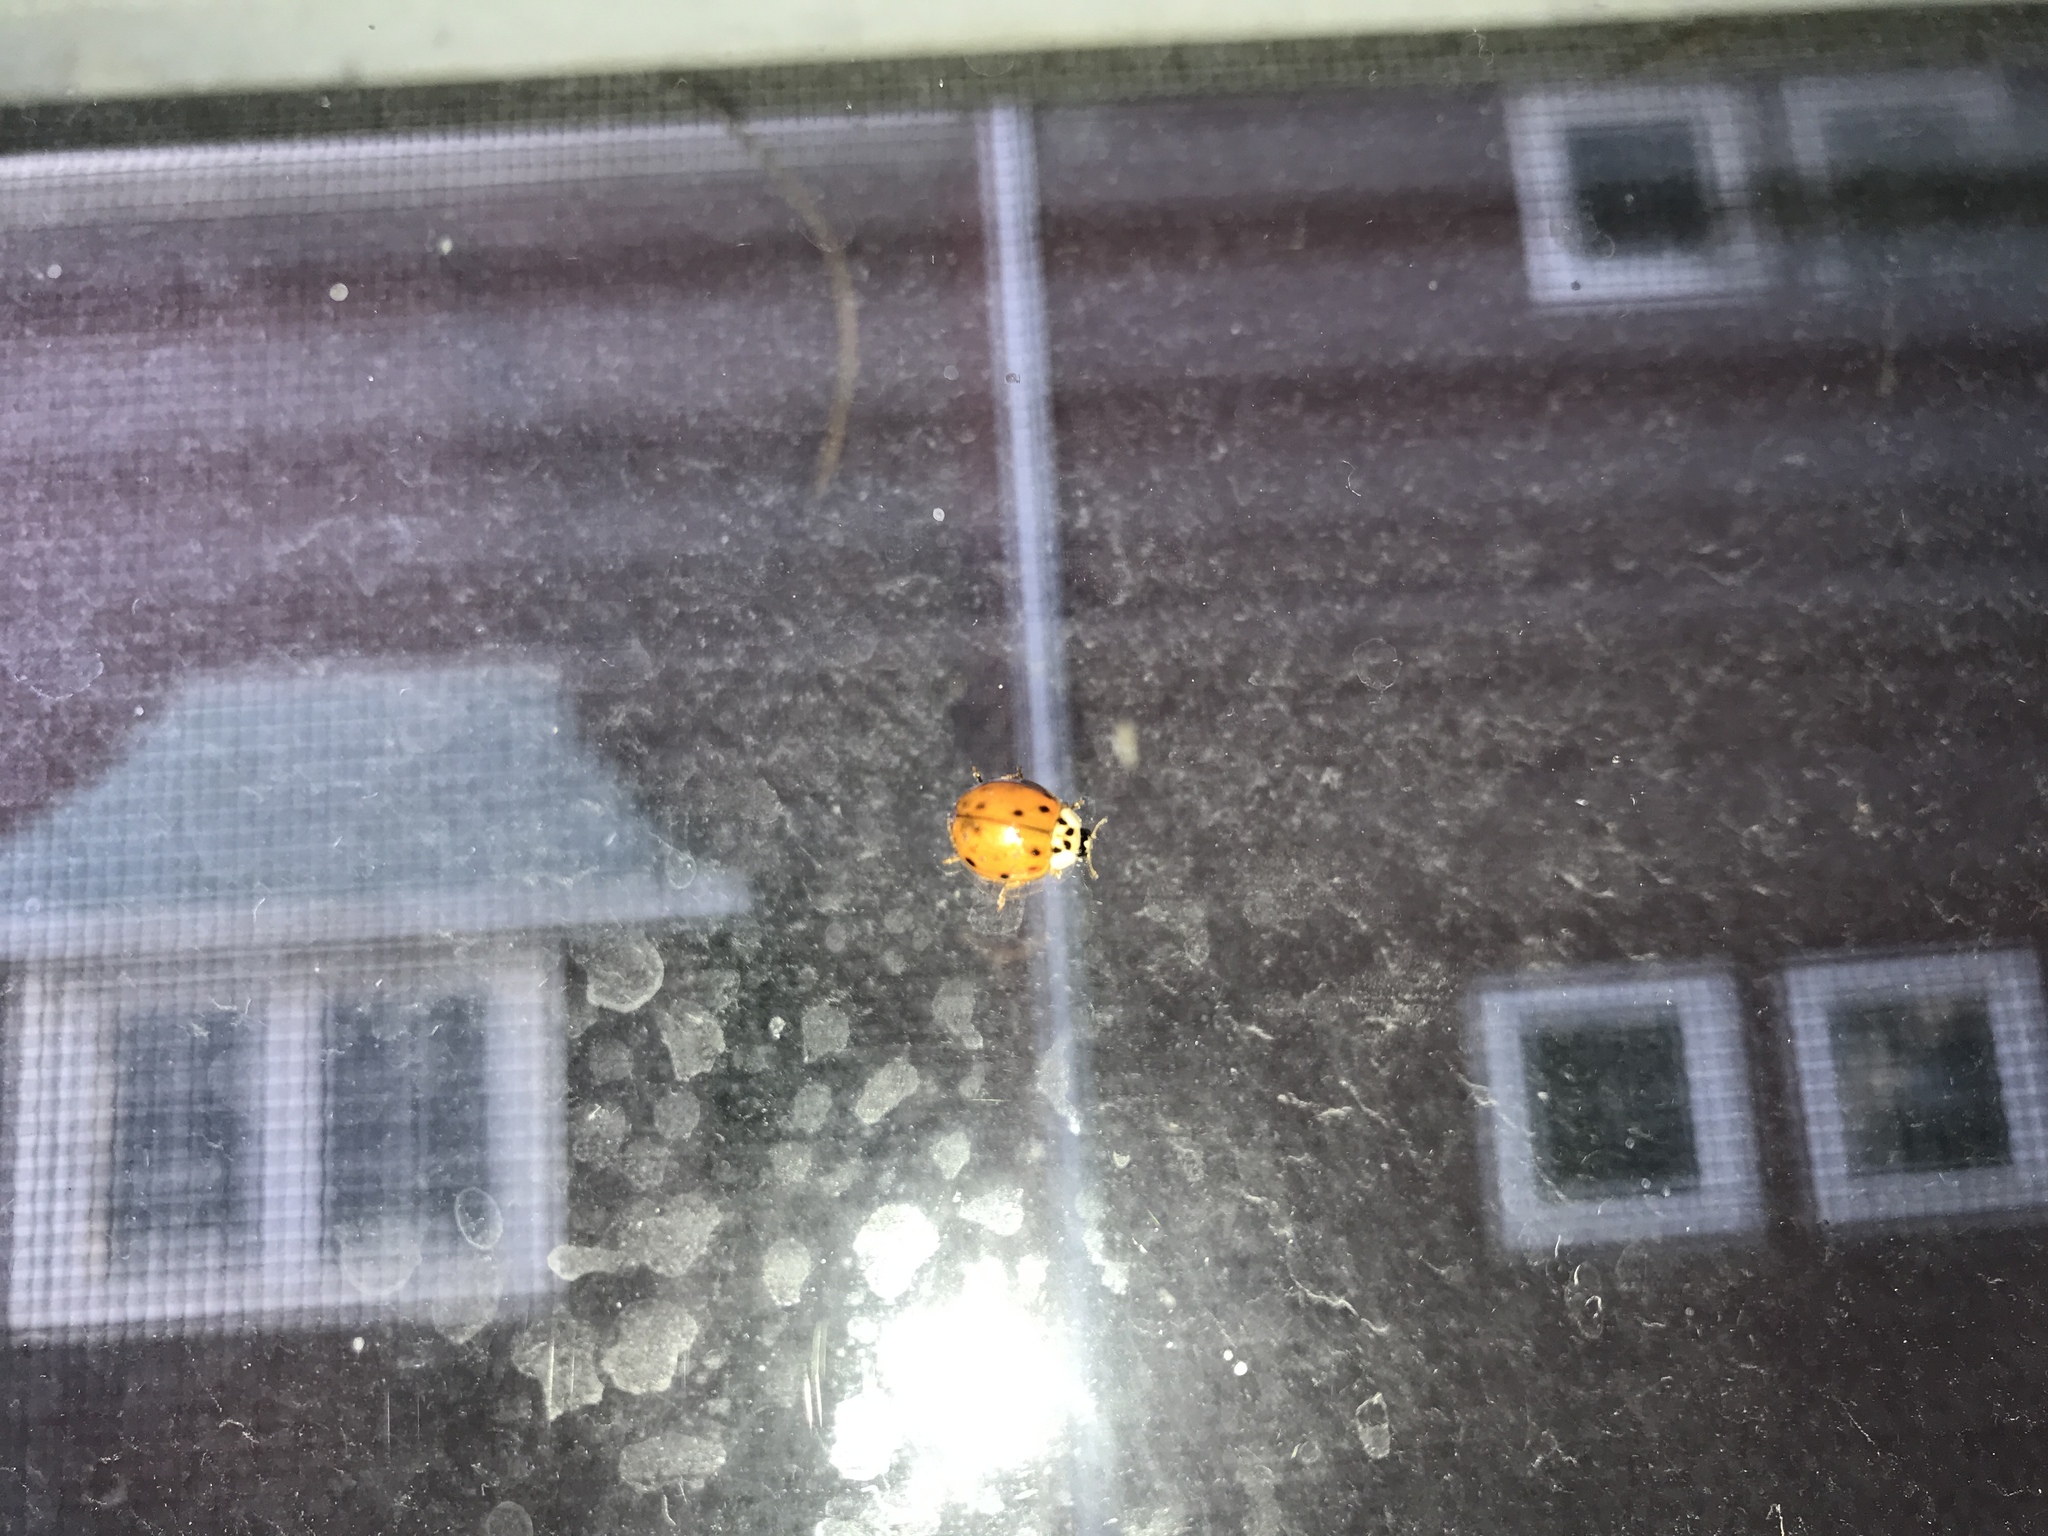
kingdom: Animalia
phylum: Arthropoda
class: Insecta
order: Coleoptera
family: Coccinellidae
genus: Harmonia
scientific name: Harmonia axyridis
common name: Harlequin ladybird
